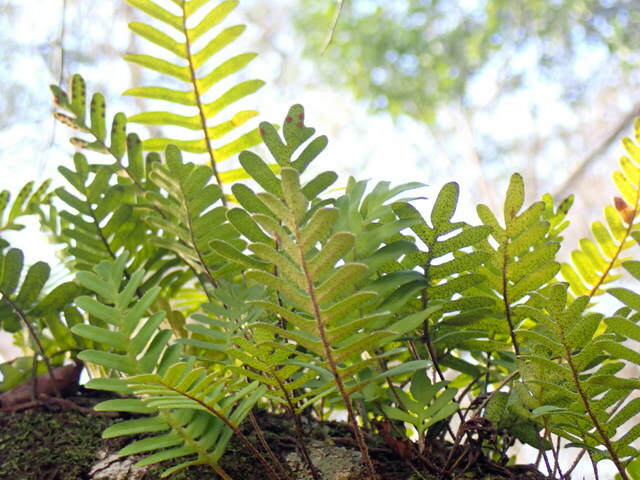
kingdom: Plantae
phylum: Tracheophyta
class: Polypodiopsida
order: Polypodiales
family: Polypodiaceae
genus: Pleopeltis
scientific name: Pleopeltis michauxiana
